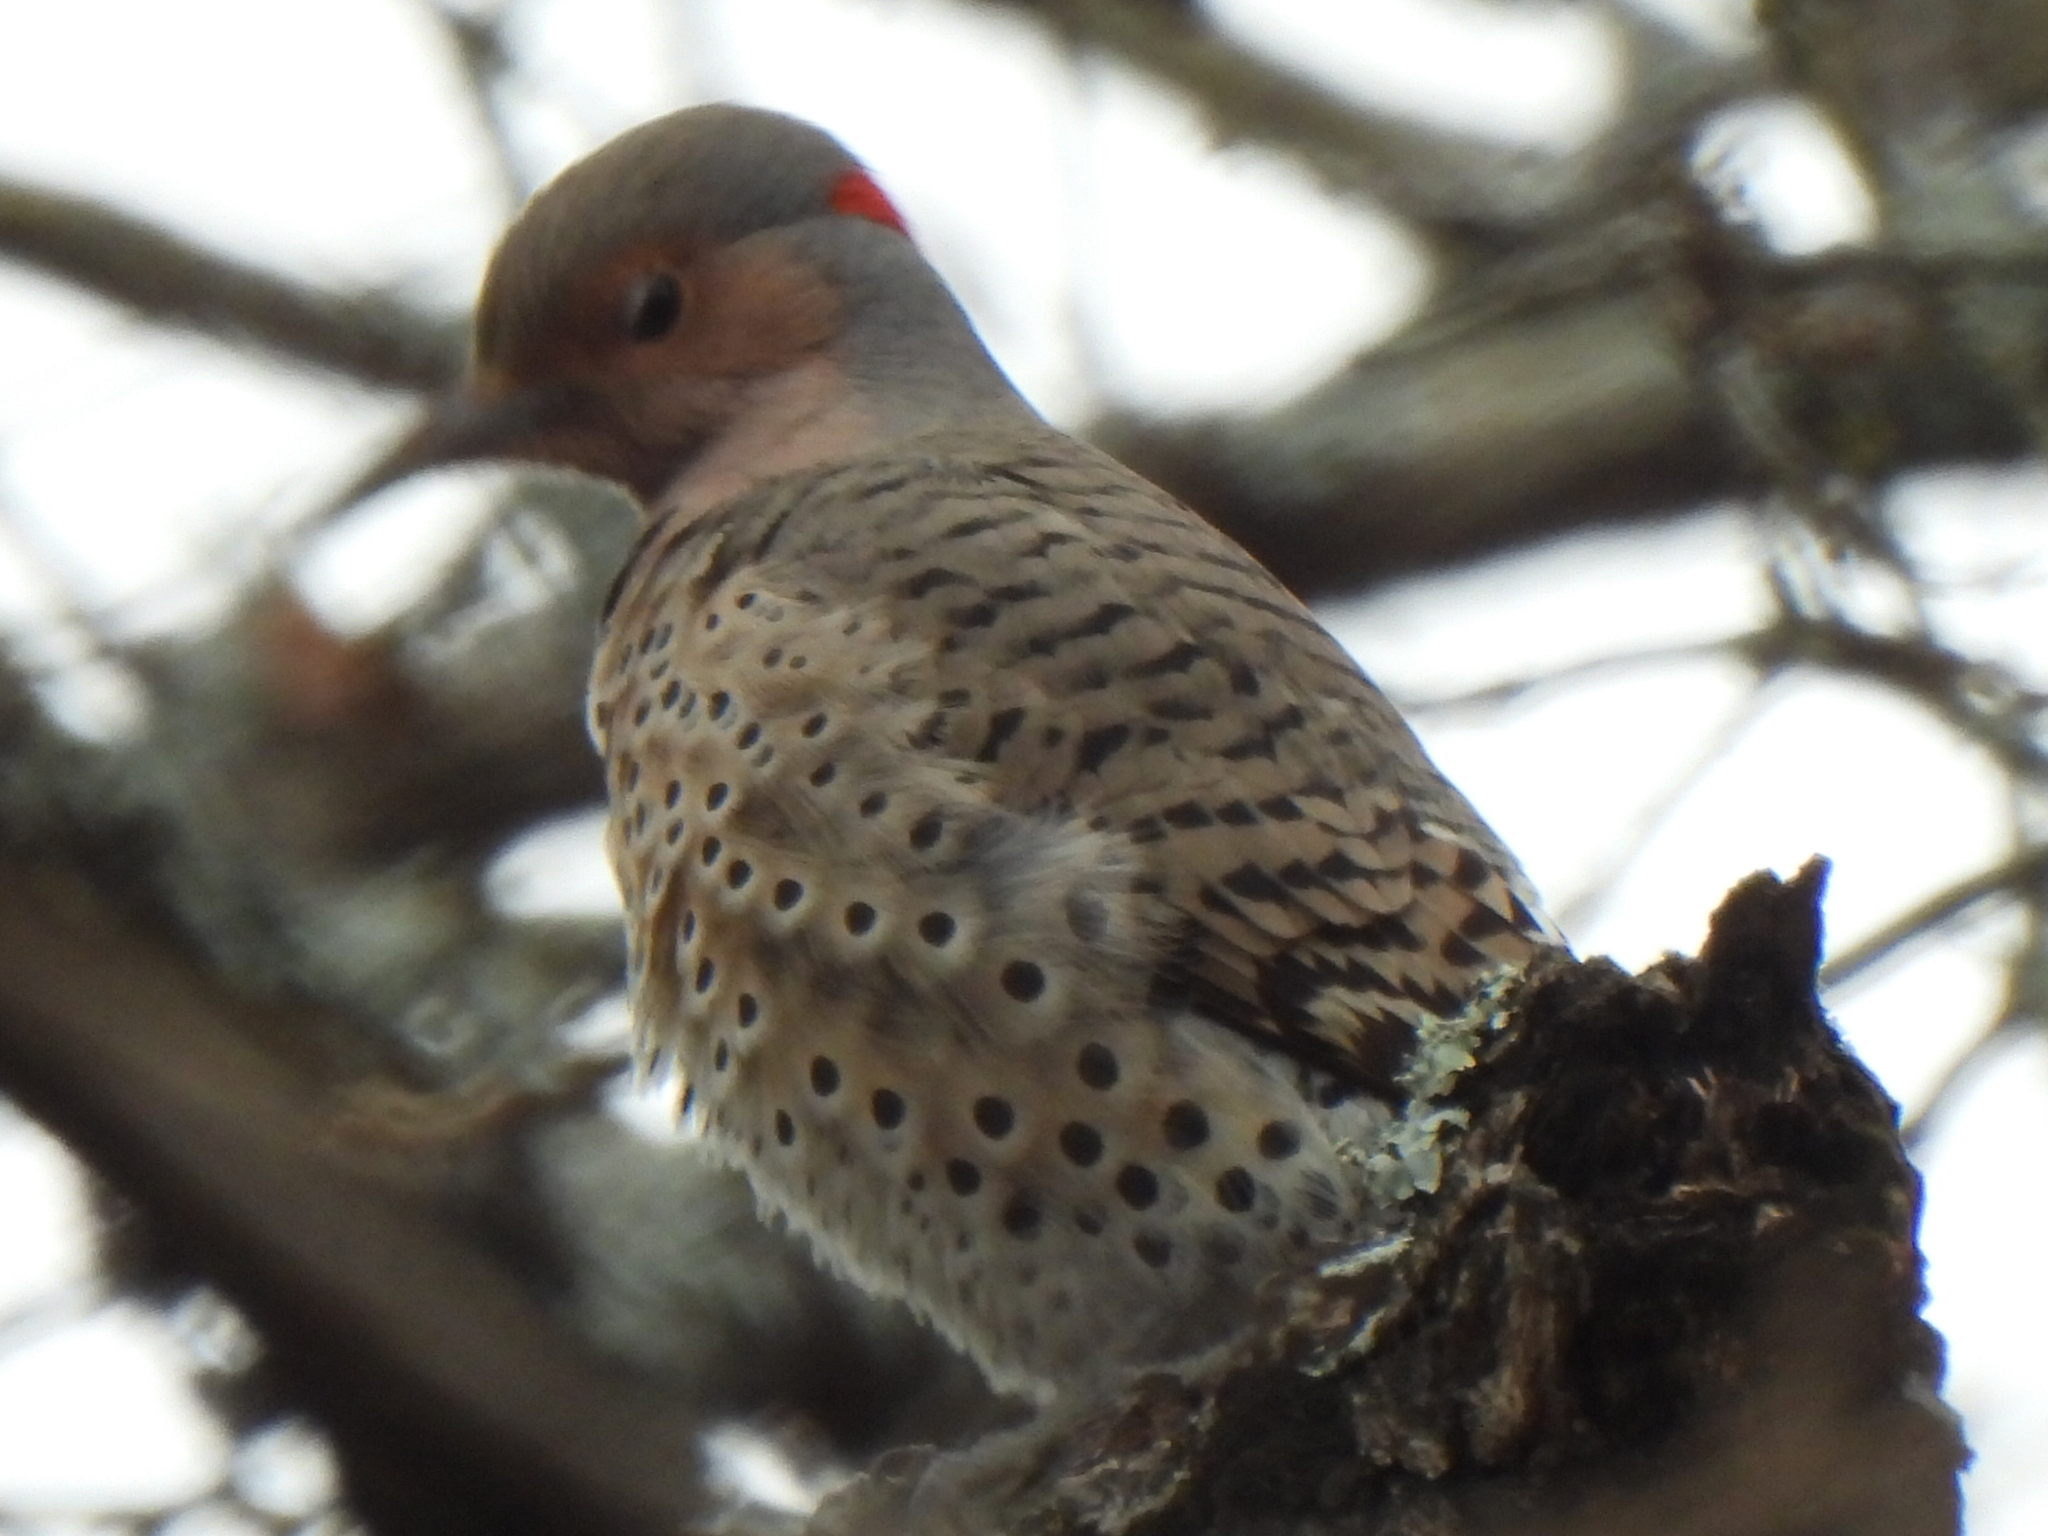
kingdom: Animalia
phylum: Chordata
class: Aves
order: Piciformes
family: Picidae
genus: Colaptes
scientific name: Colaptes auratus
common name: Northern flicker
